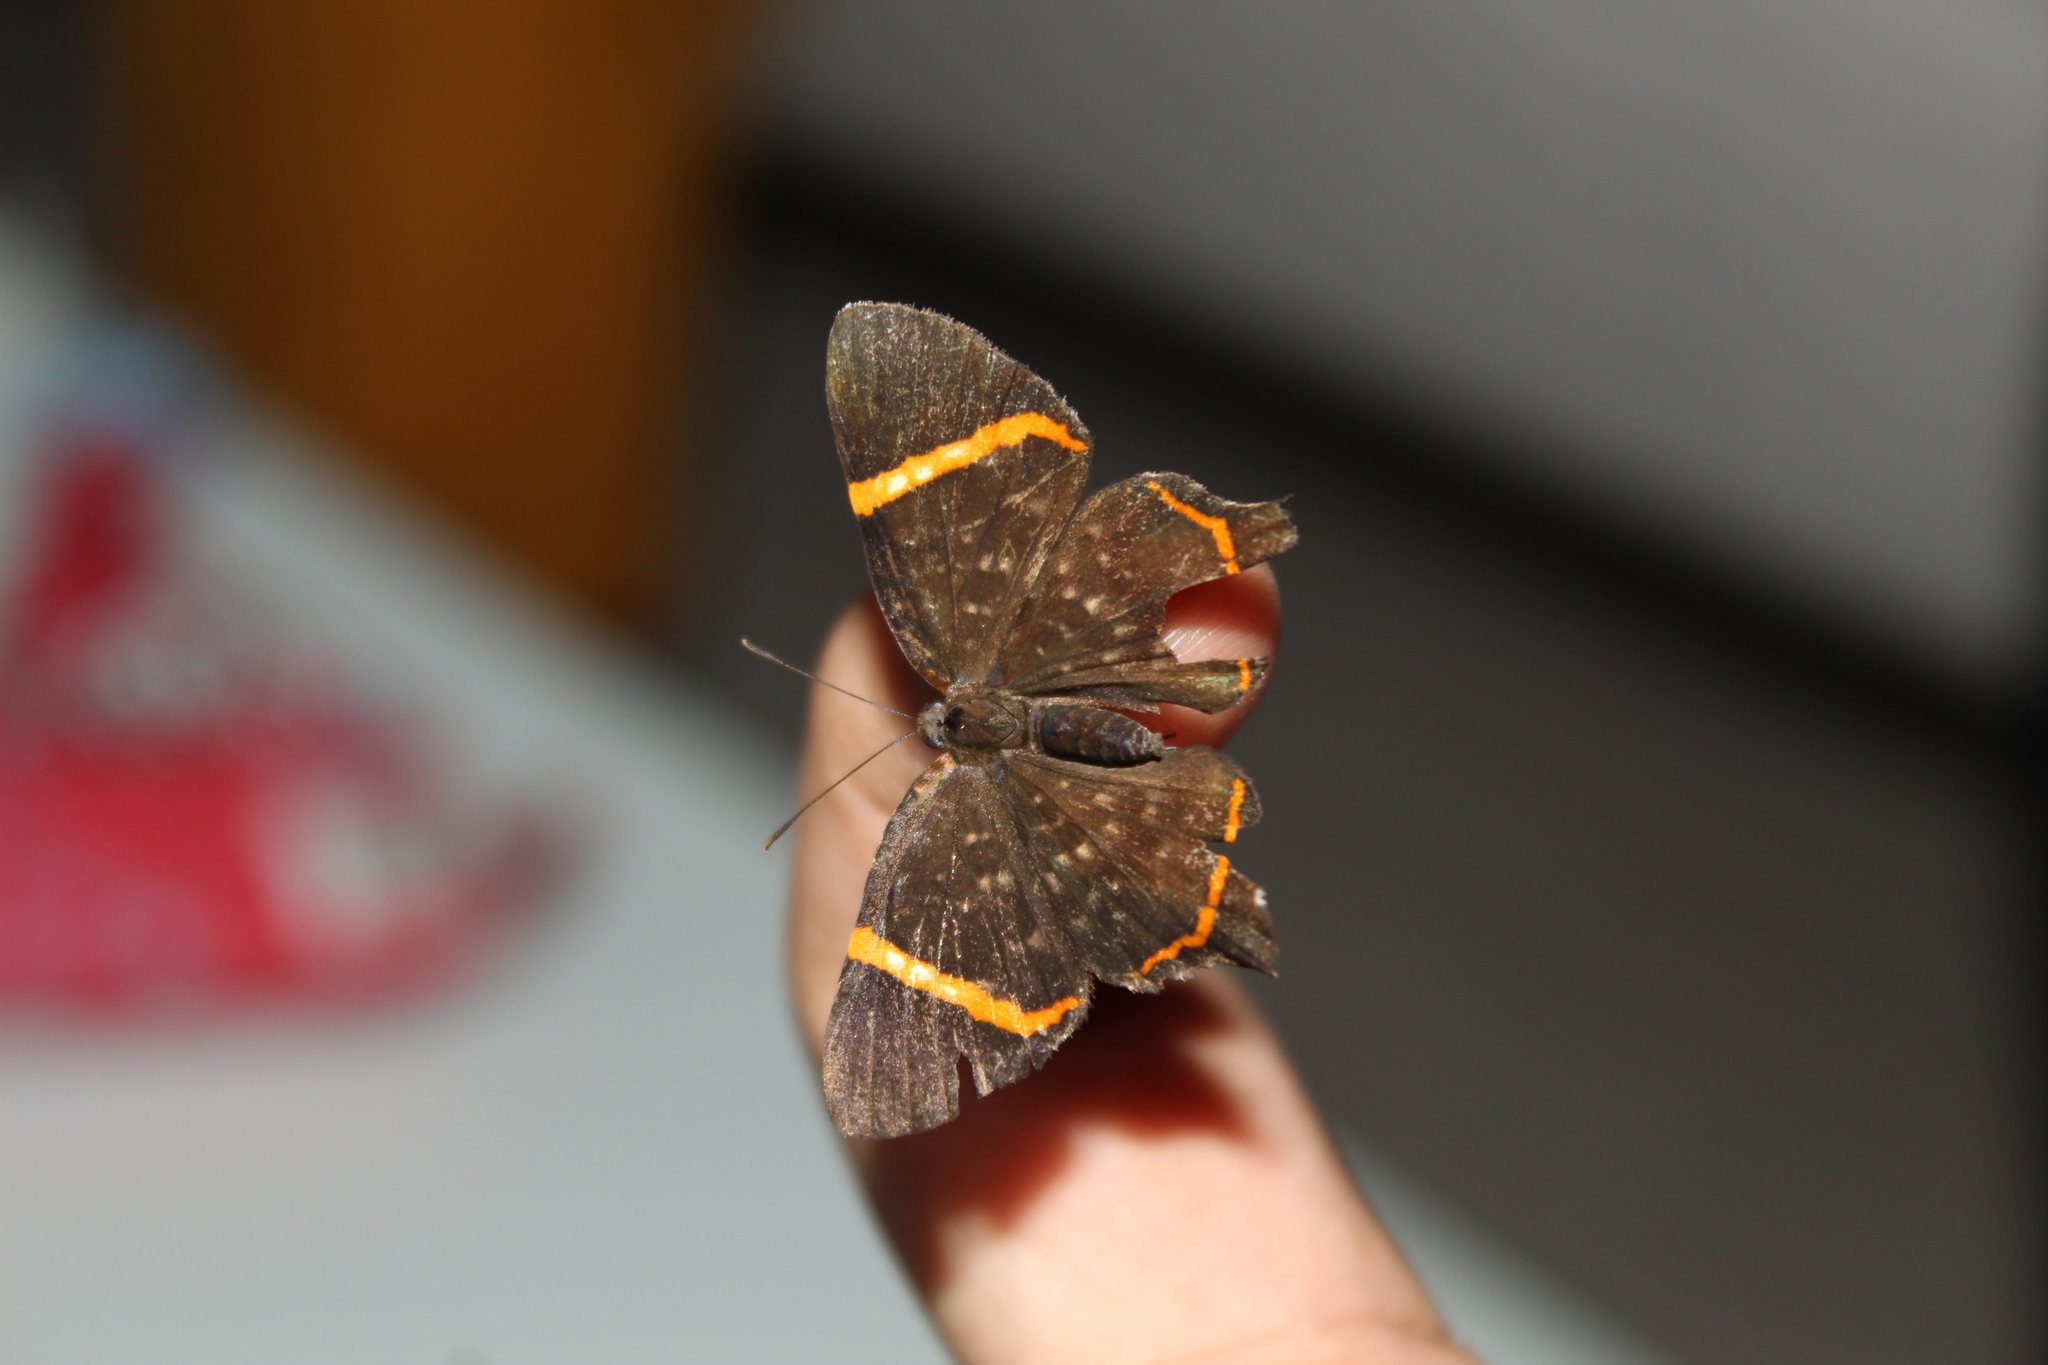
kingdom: Animalia
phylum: Arthropoda
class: Insecta
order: Lepidoptera
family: Riodinidae
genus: Riodina
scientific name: Riodina lysippus
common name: Lysippus metalmark
